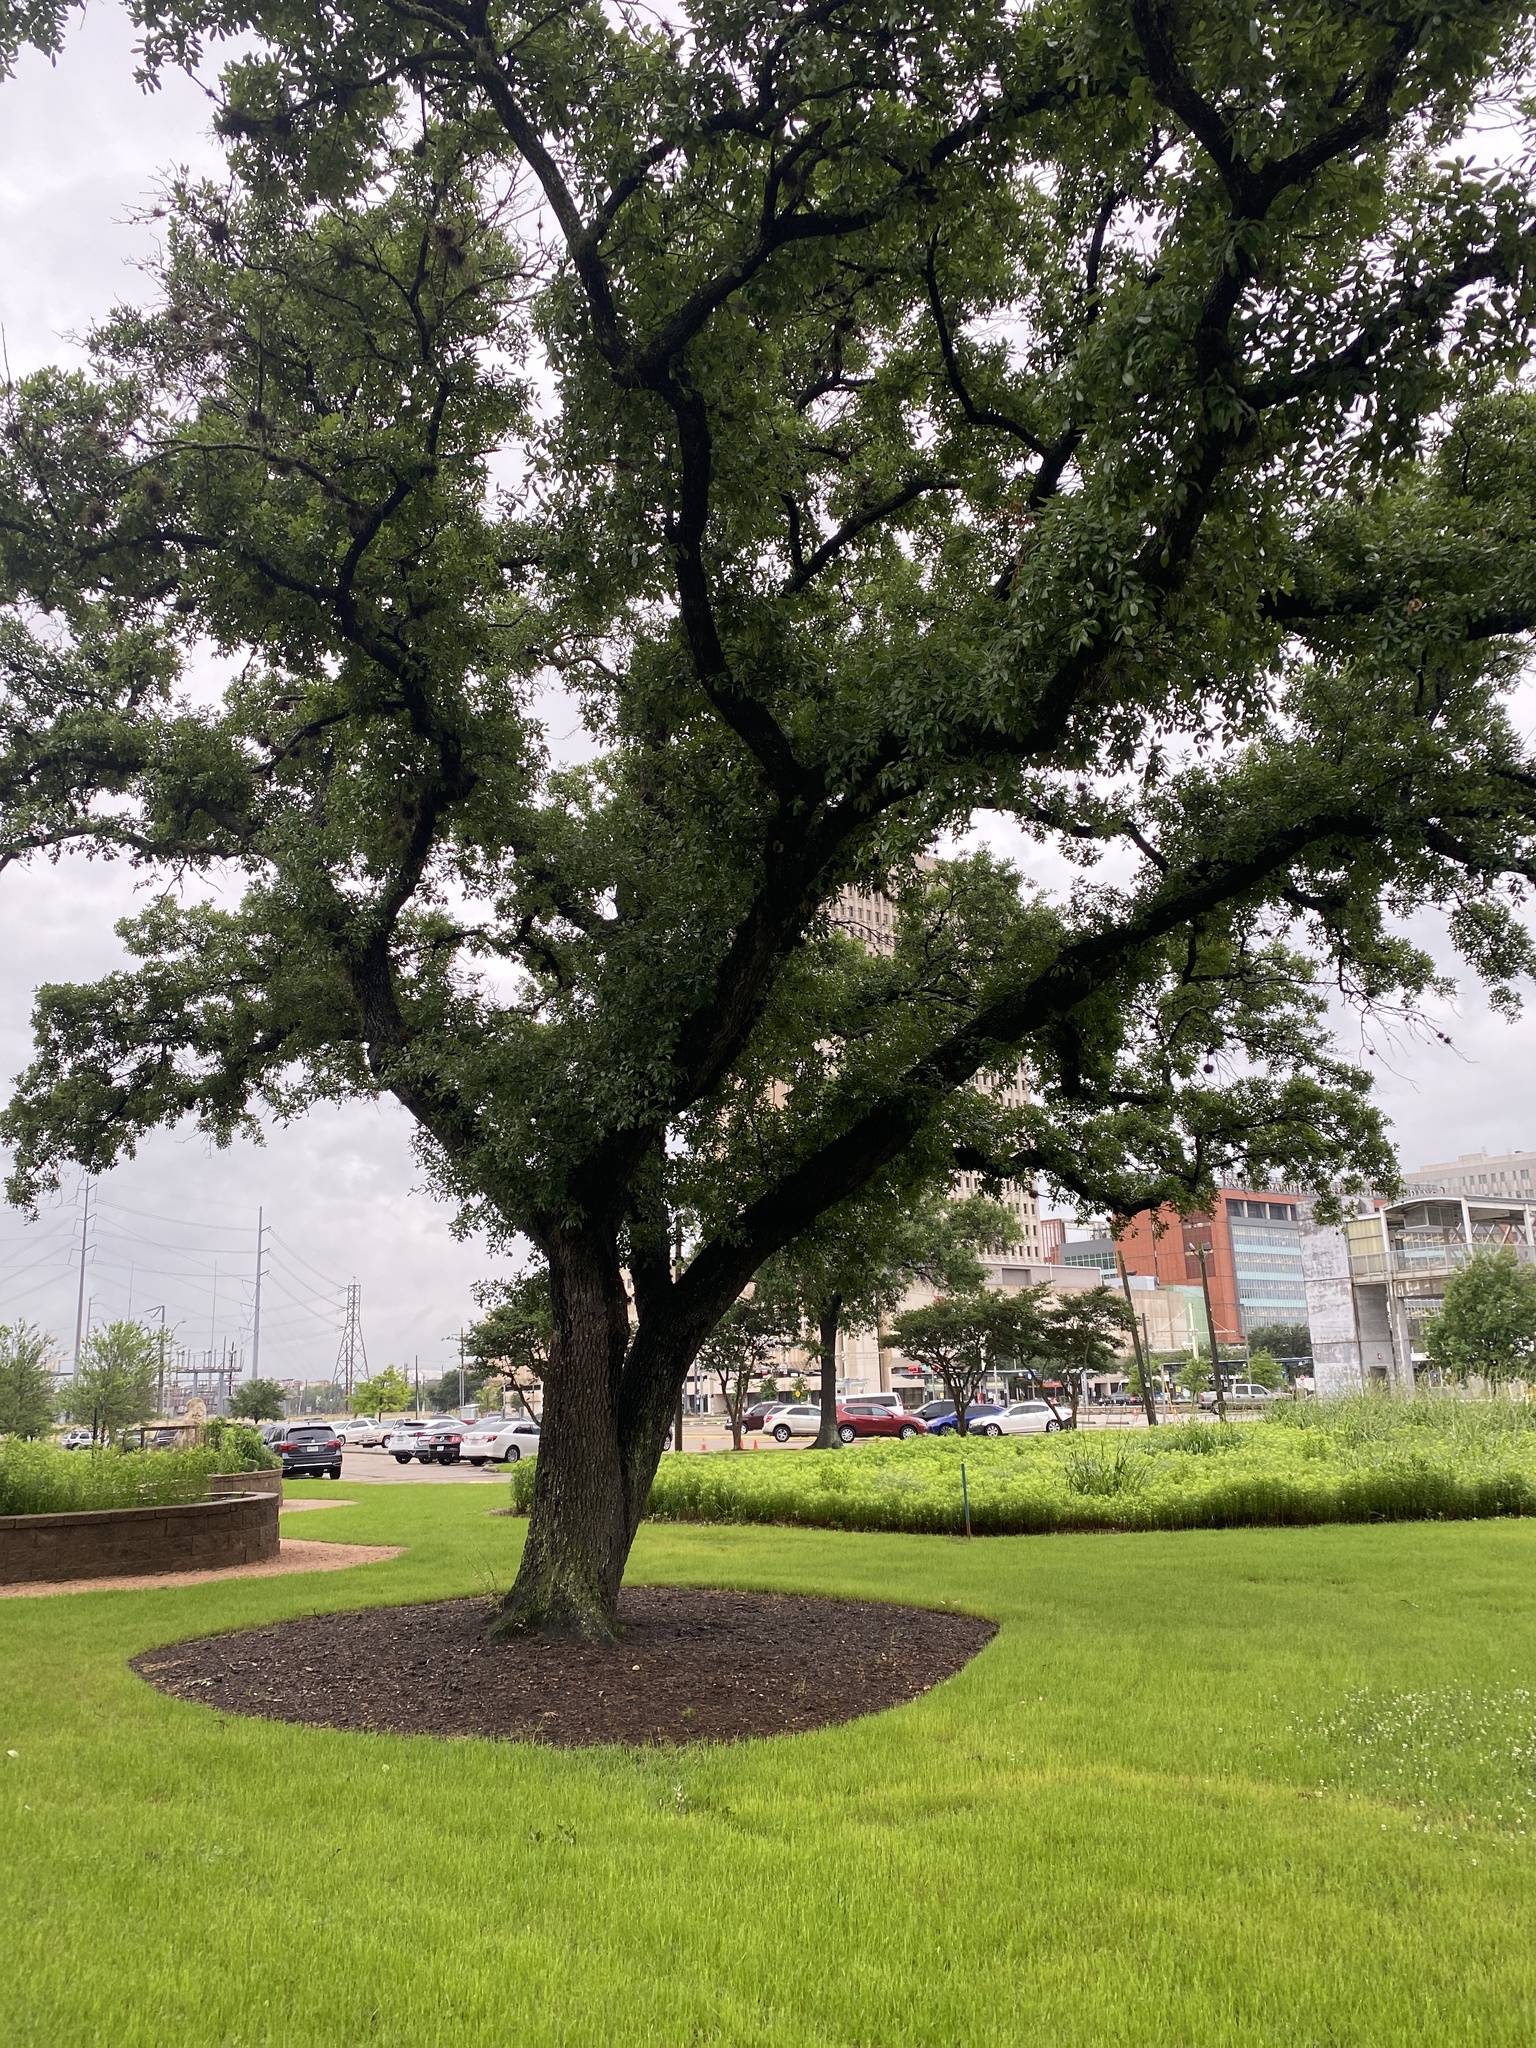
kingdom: Plantae
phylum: Tracheophyta
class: Magnoliopsida
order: Fagales
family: Fagaceae
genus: Quercus
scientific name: Quercus virginiana
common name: Southern live oak
